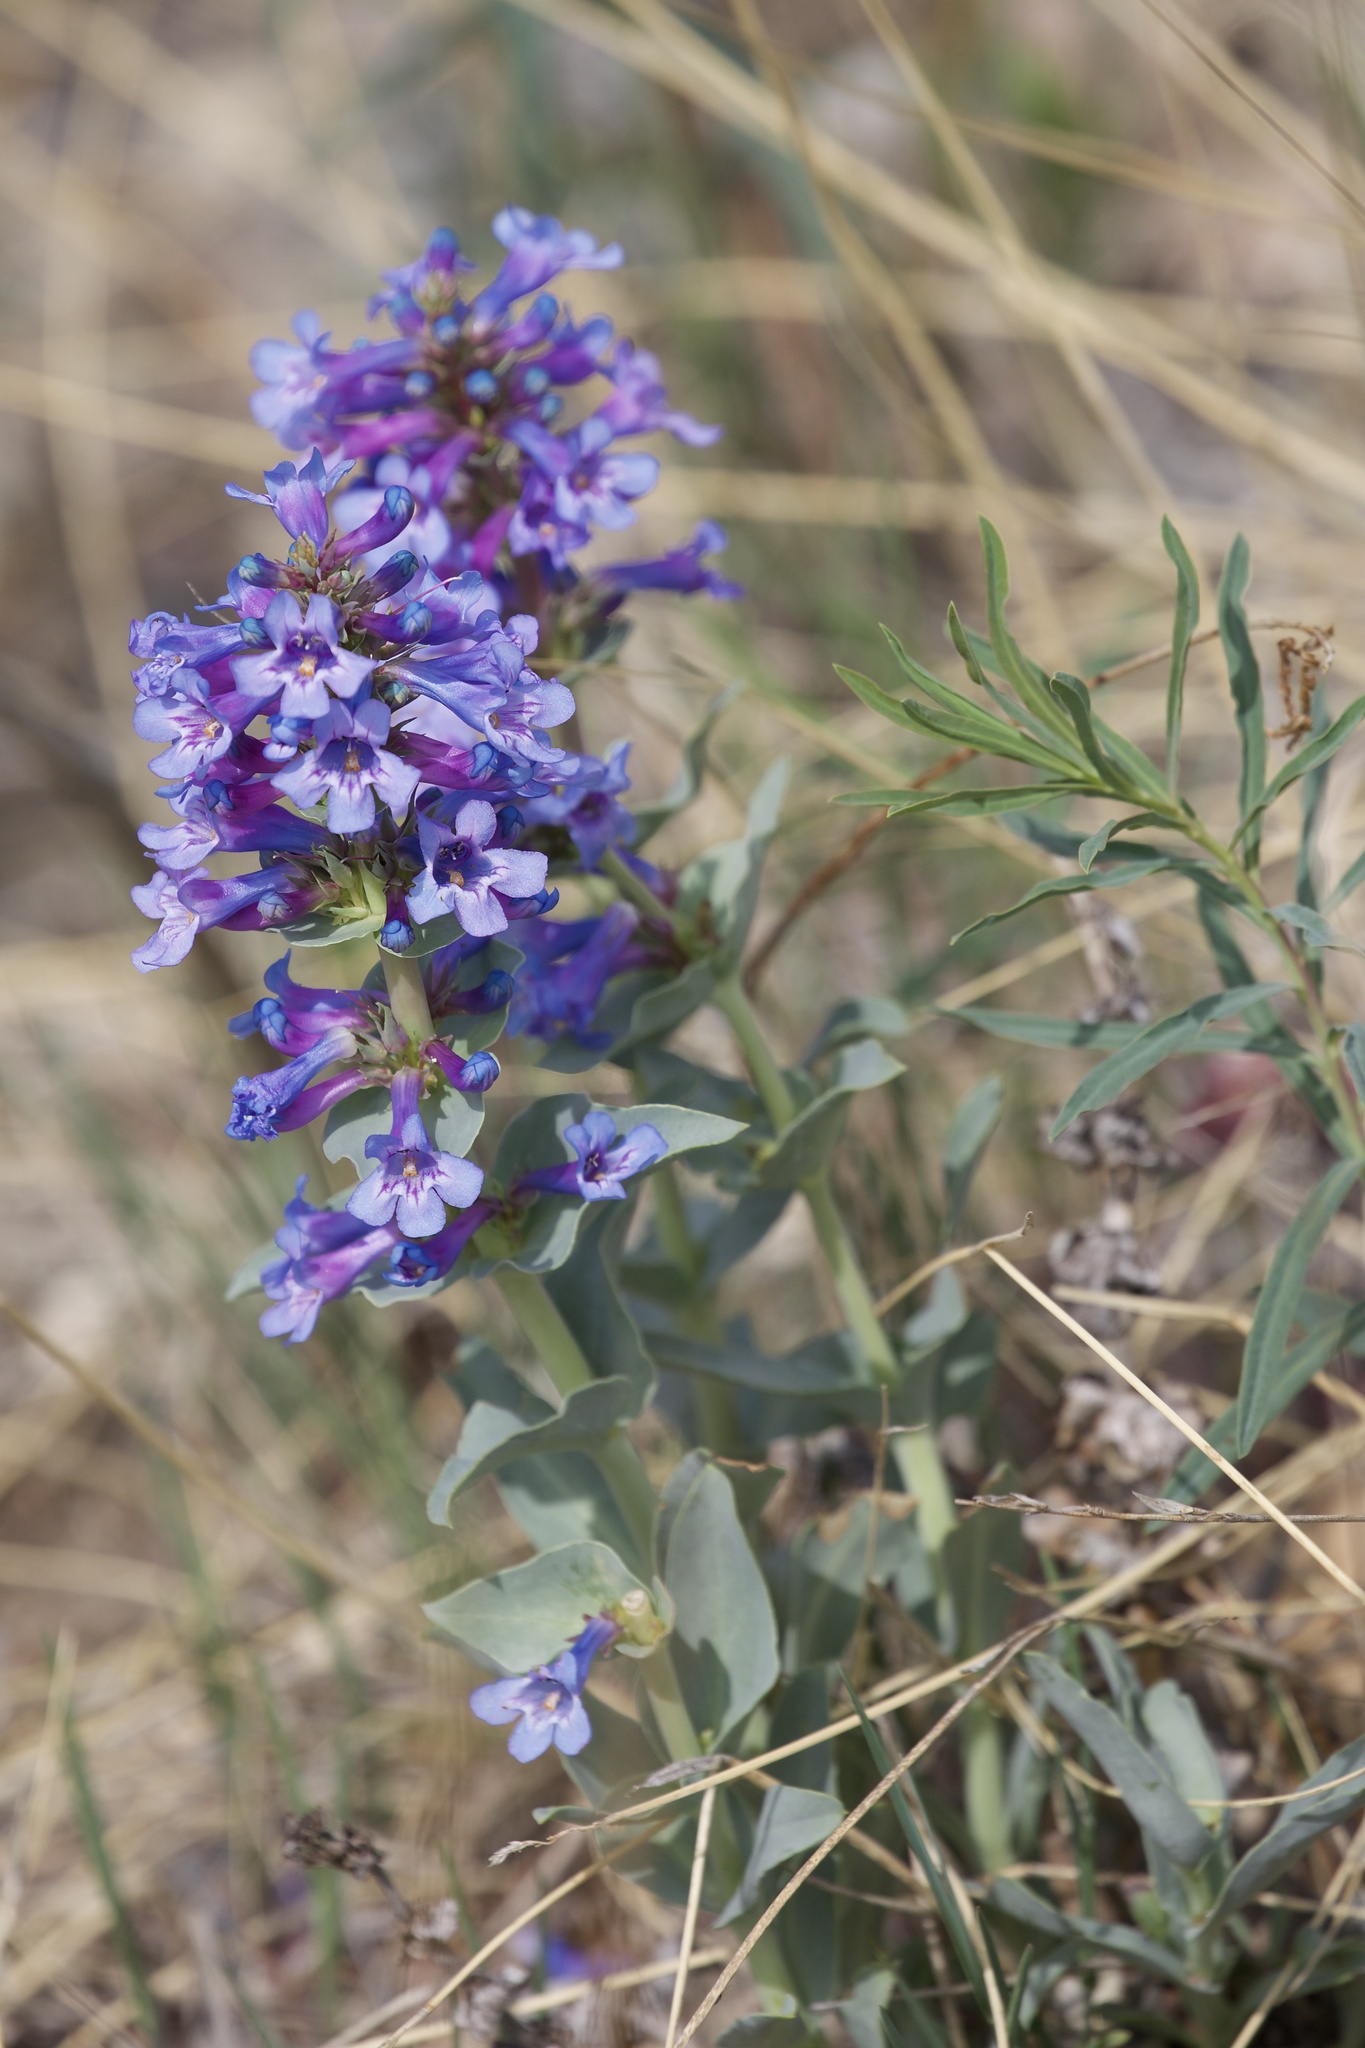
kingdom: Plantae
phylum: Tracheophyta
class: Magnoliopsida
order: Lamiales
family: Plantaginaceae
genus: Penstemon
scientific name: Penstemon nitidus
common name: Shining penstemon
